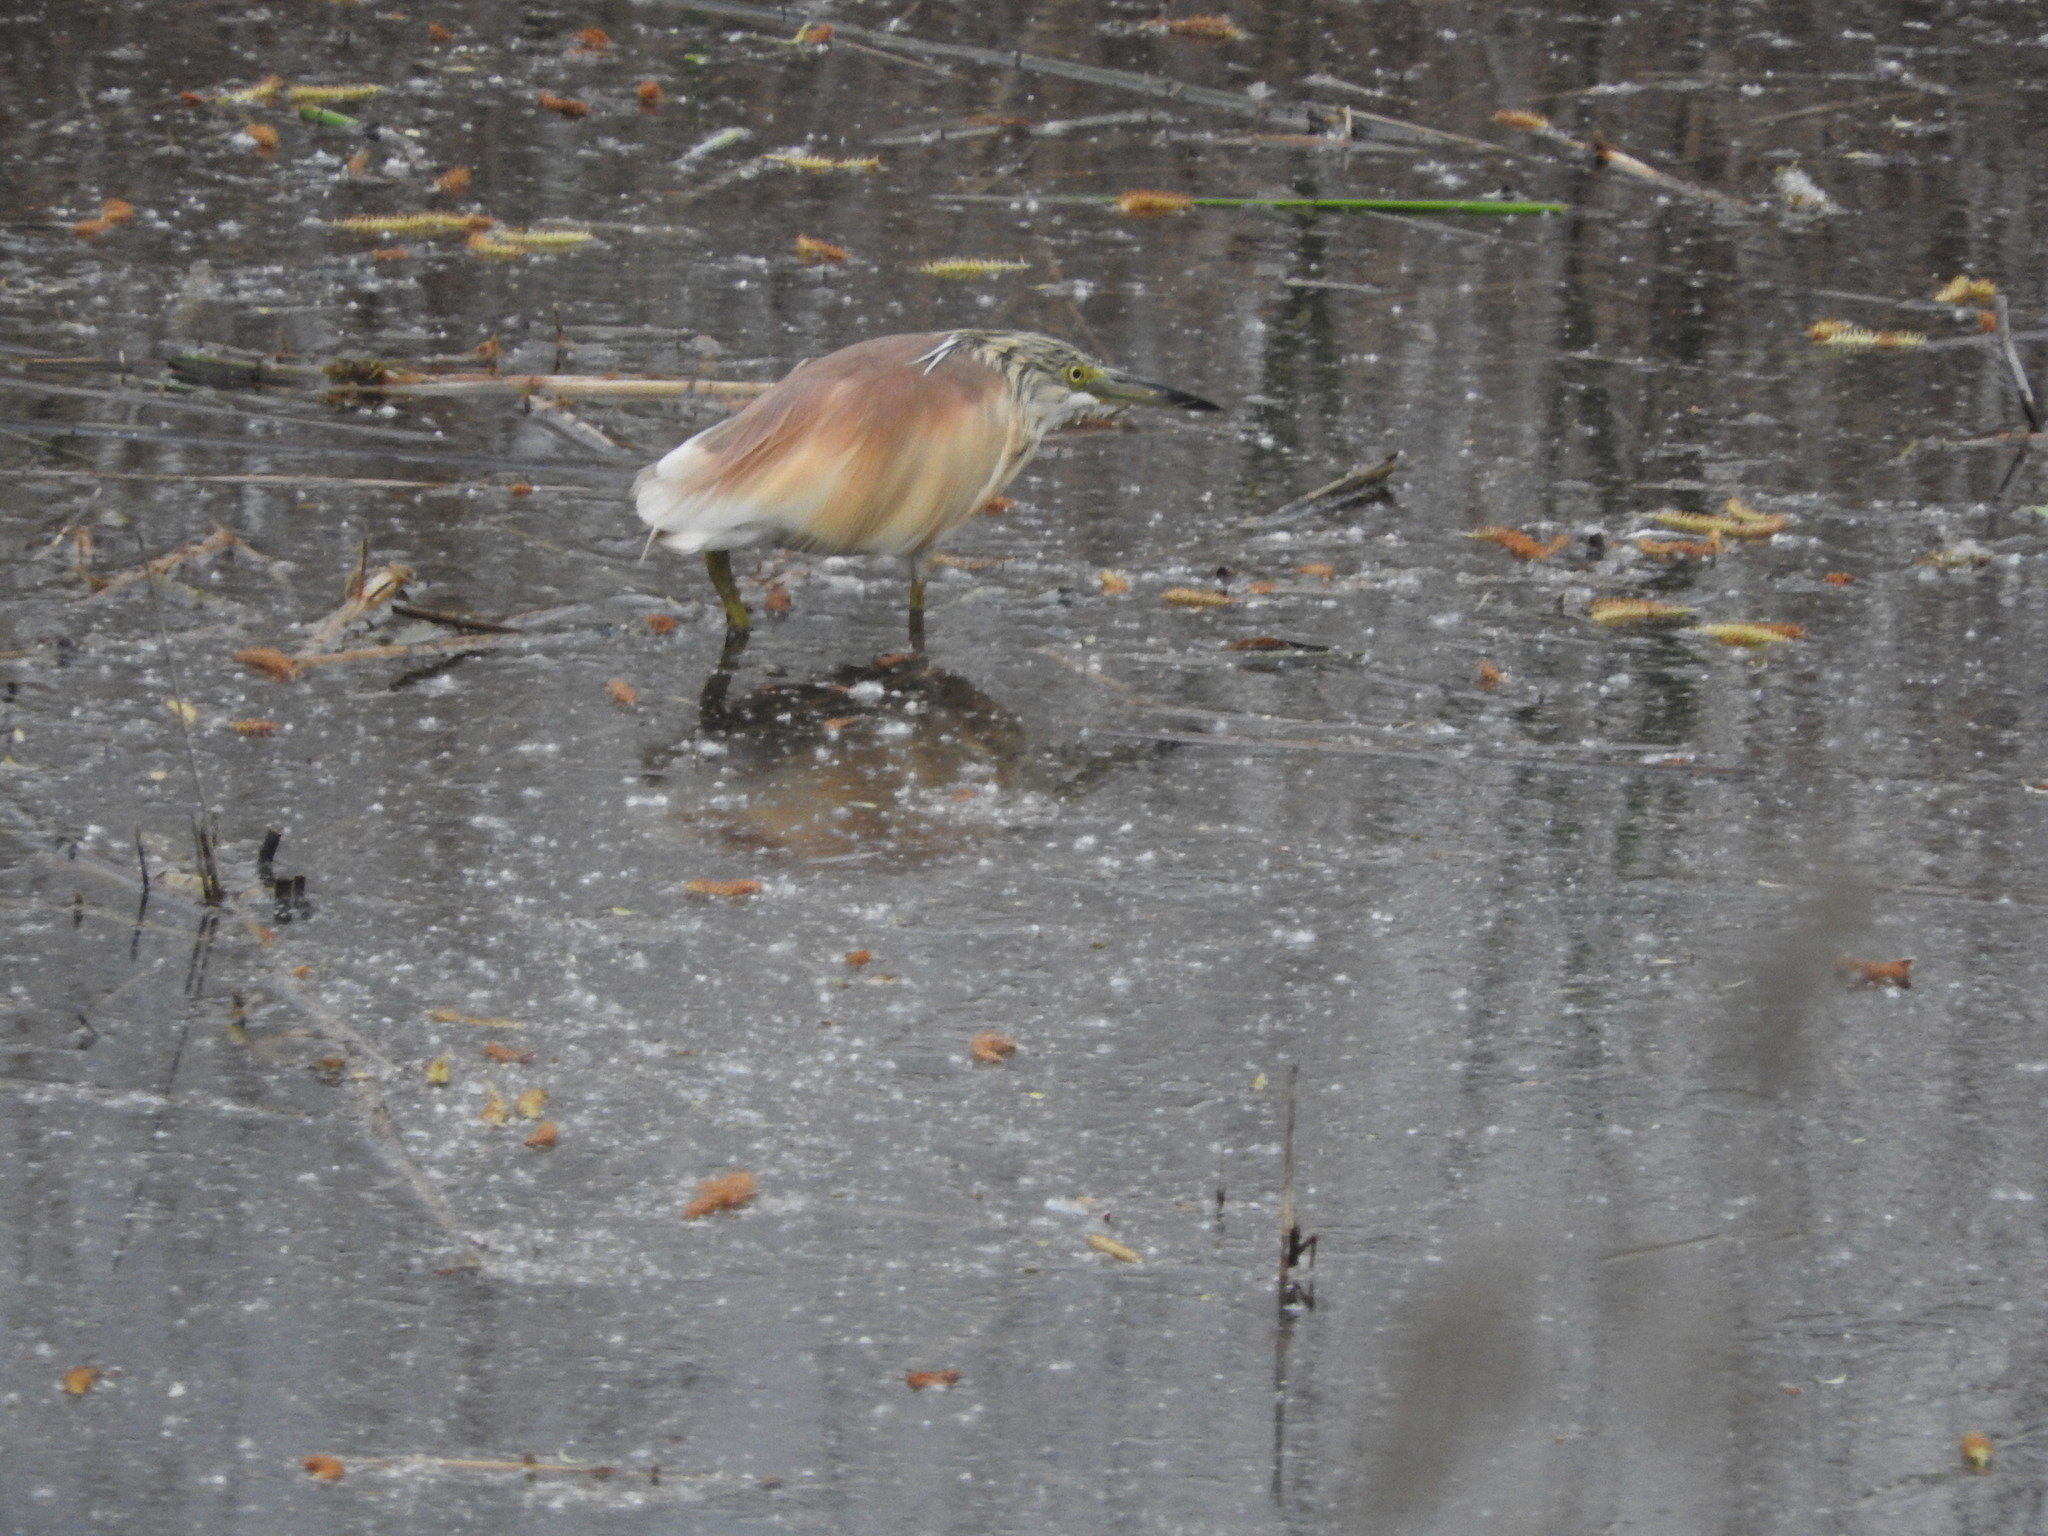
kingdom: Animalia
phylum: Chordata
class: Aves
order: Pelecaniformes
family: Ardeidae
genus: Ardeola
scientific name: Ardeola ralloides
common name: Squacco heron
